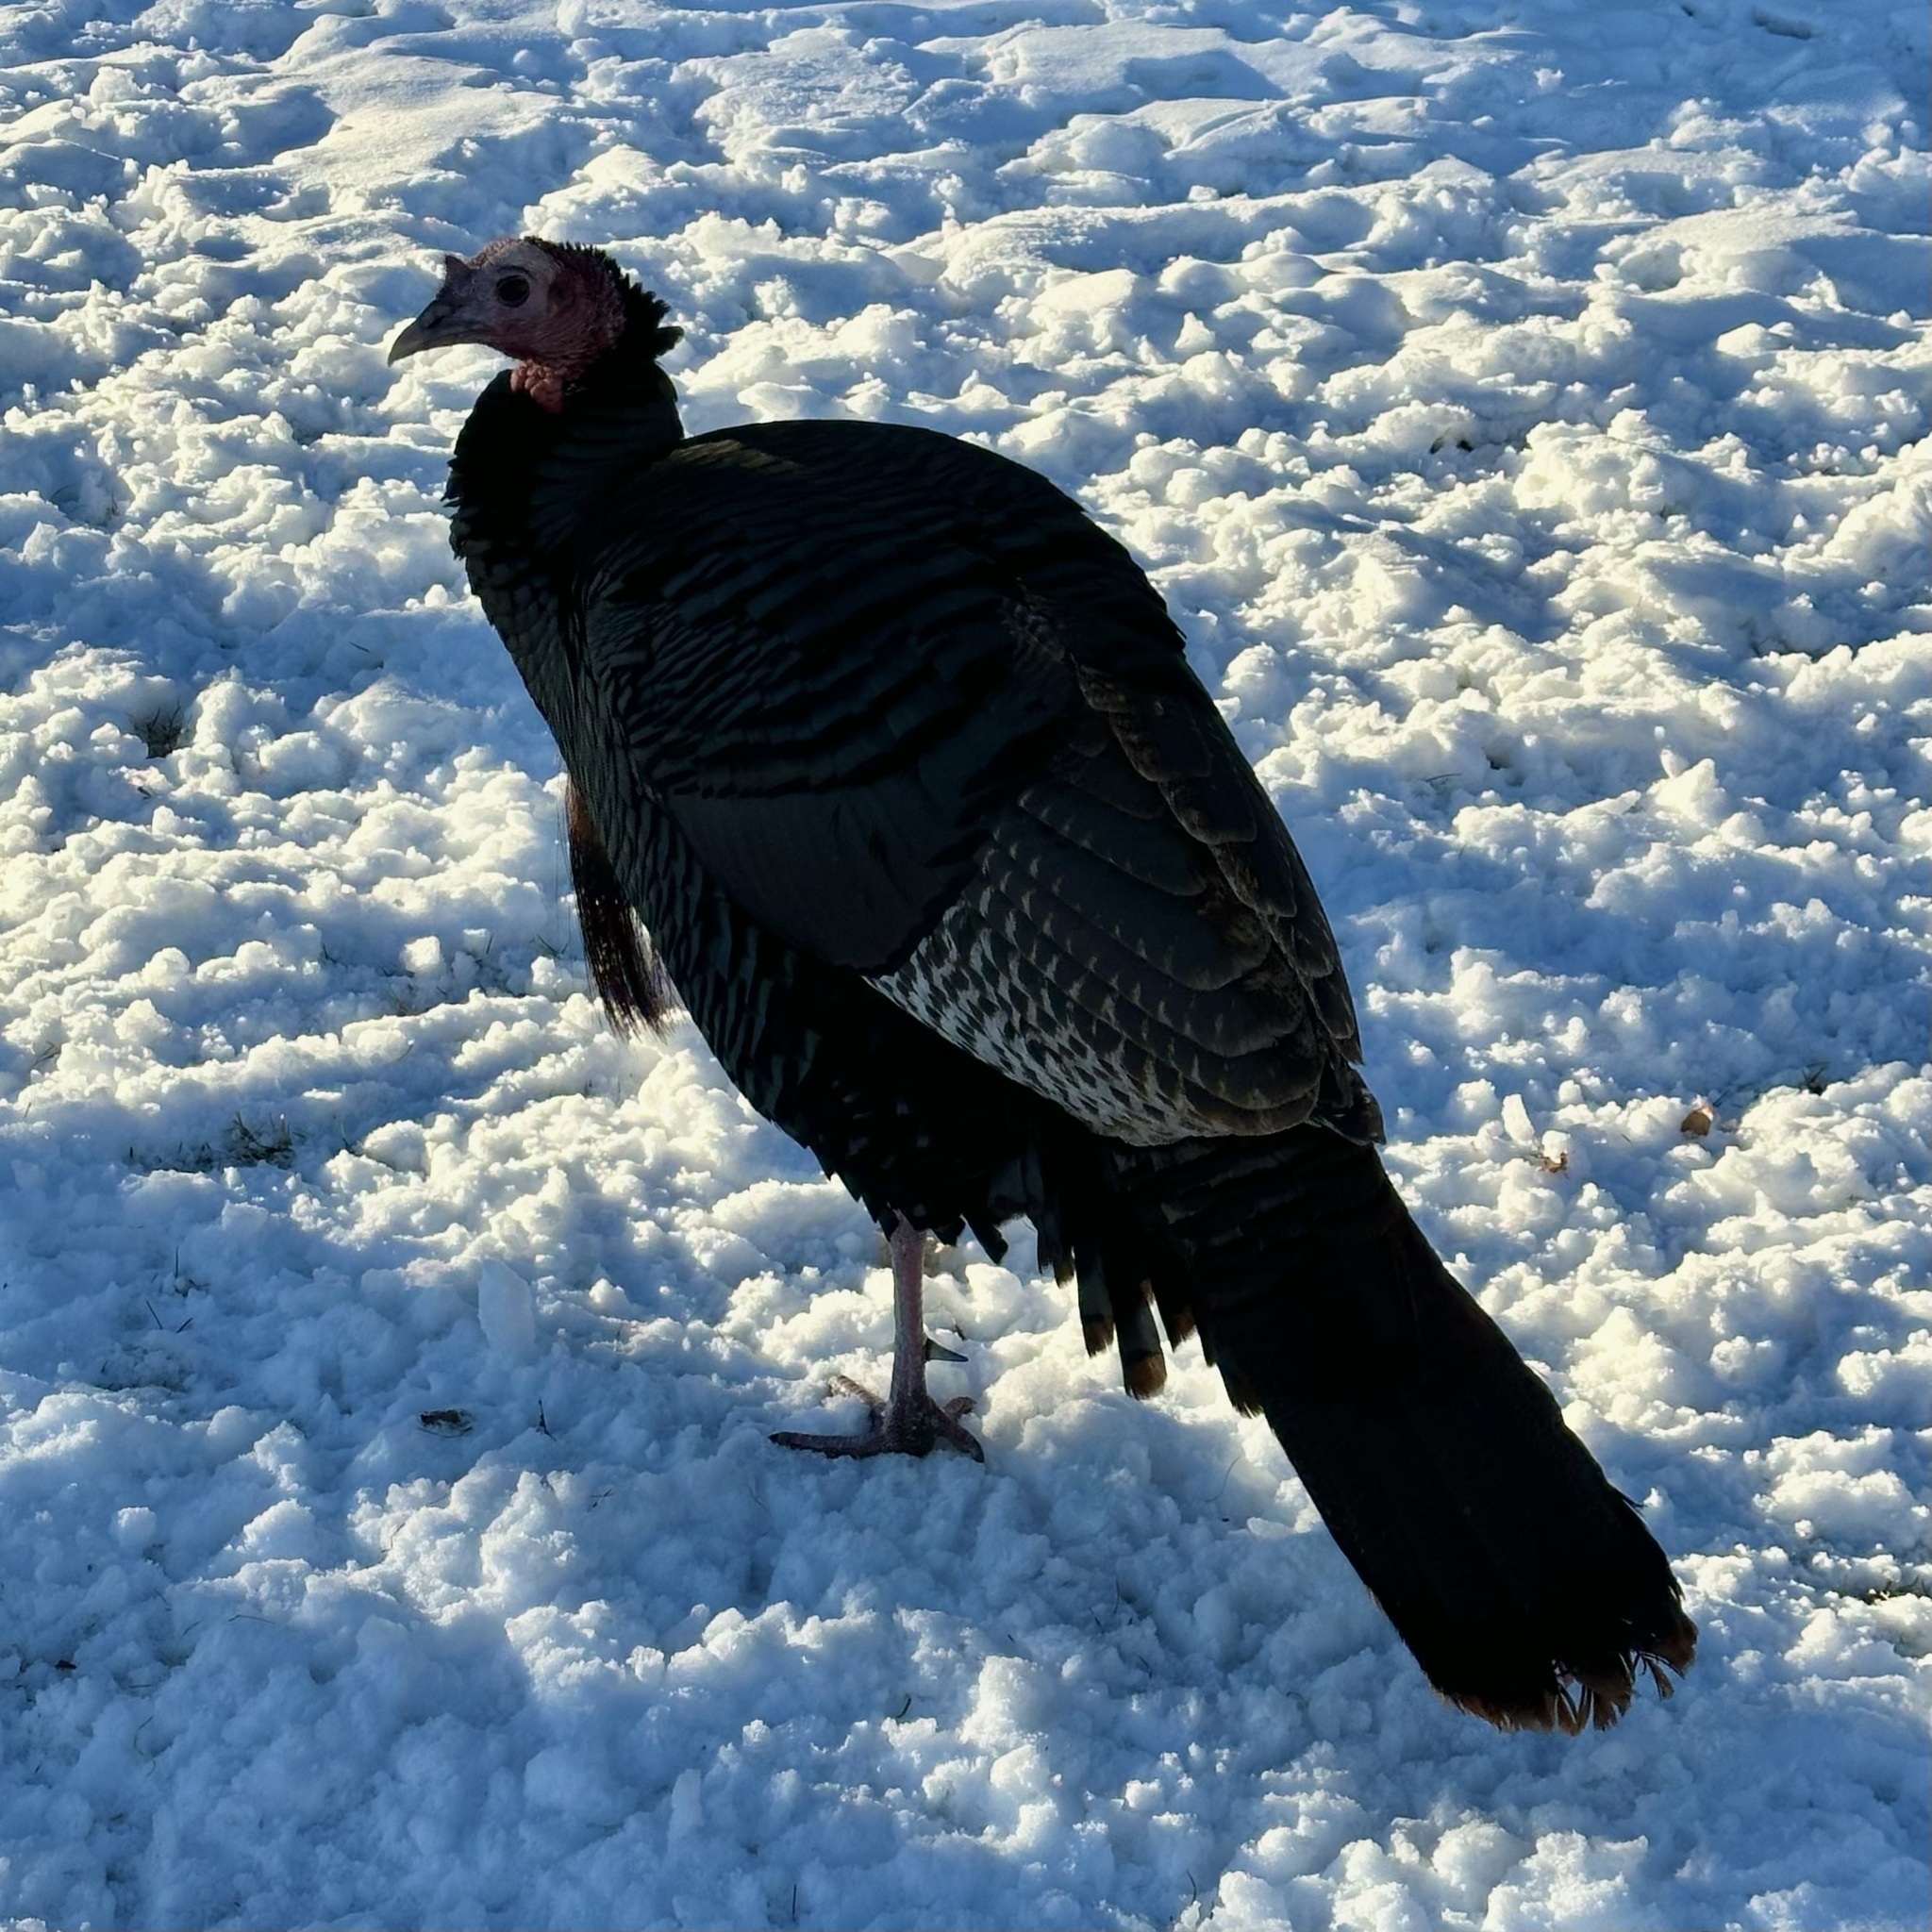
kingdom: Animalia
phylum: Chordata
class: Aves
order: Galliformes
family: Phasianidae
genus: Meleagris
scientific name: Meleagris gallopavo
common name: Wild turkey
